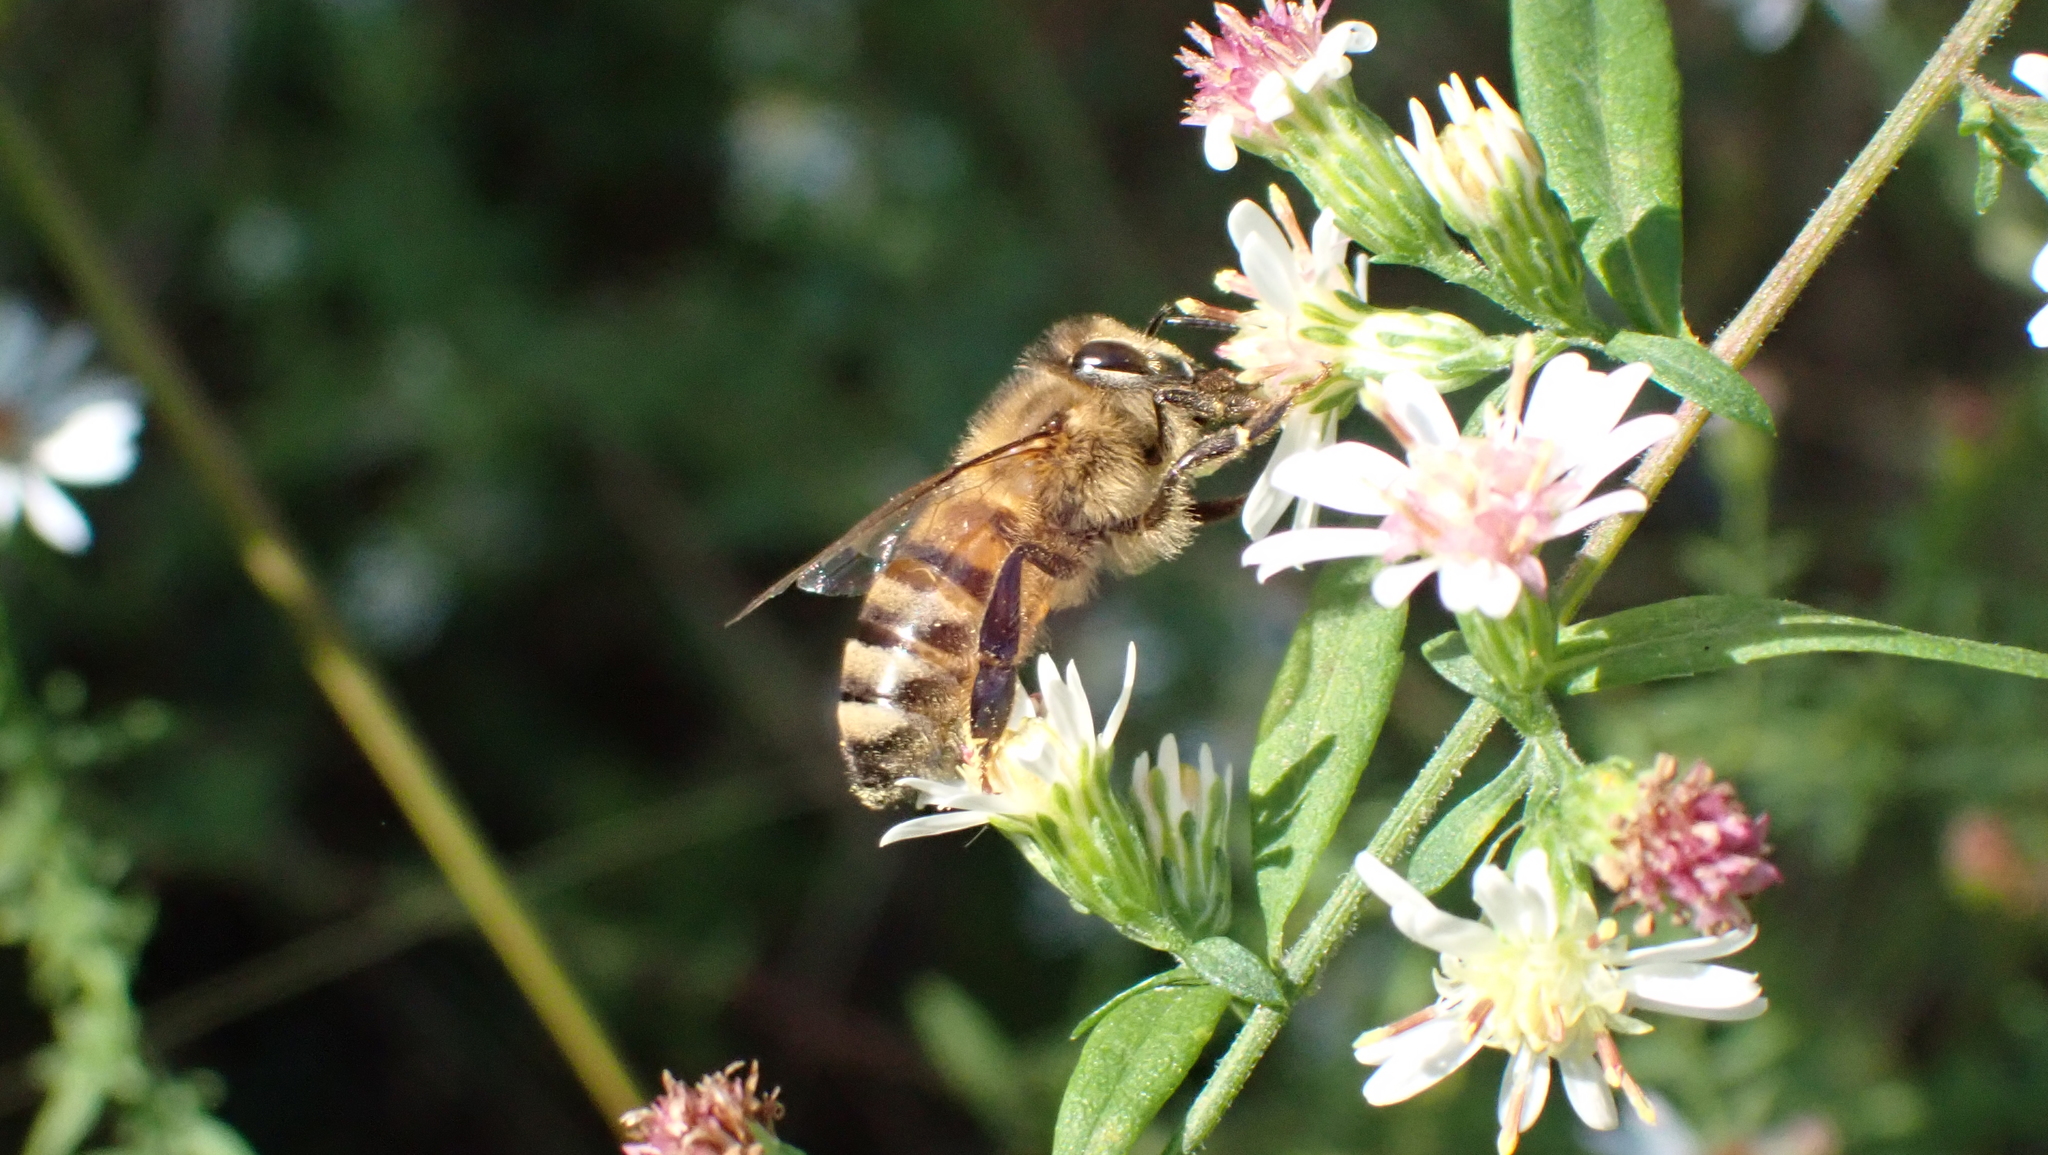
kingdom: Animalia
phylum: Arthropoda
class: Insecta
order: Hymenoptera
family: Apidae
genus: Apis
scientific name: Apis mellifera
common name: Honey bee
